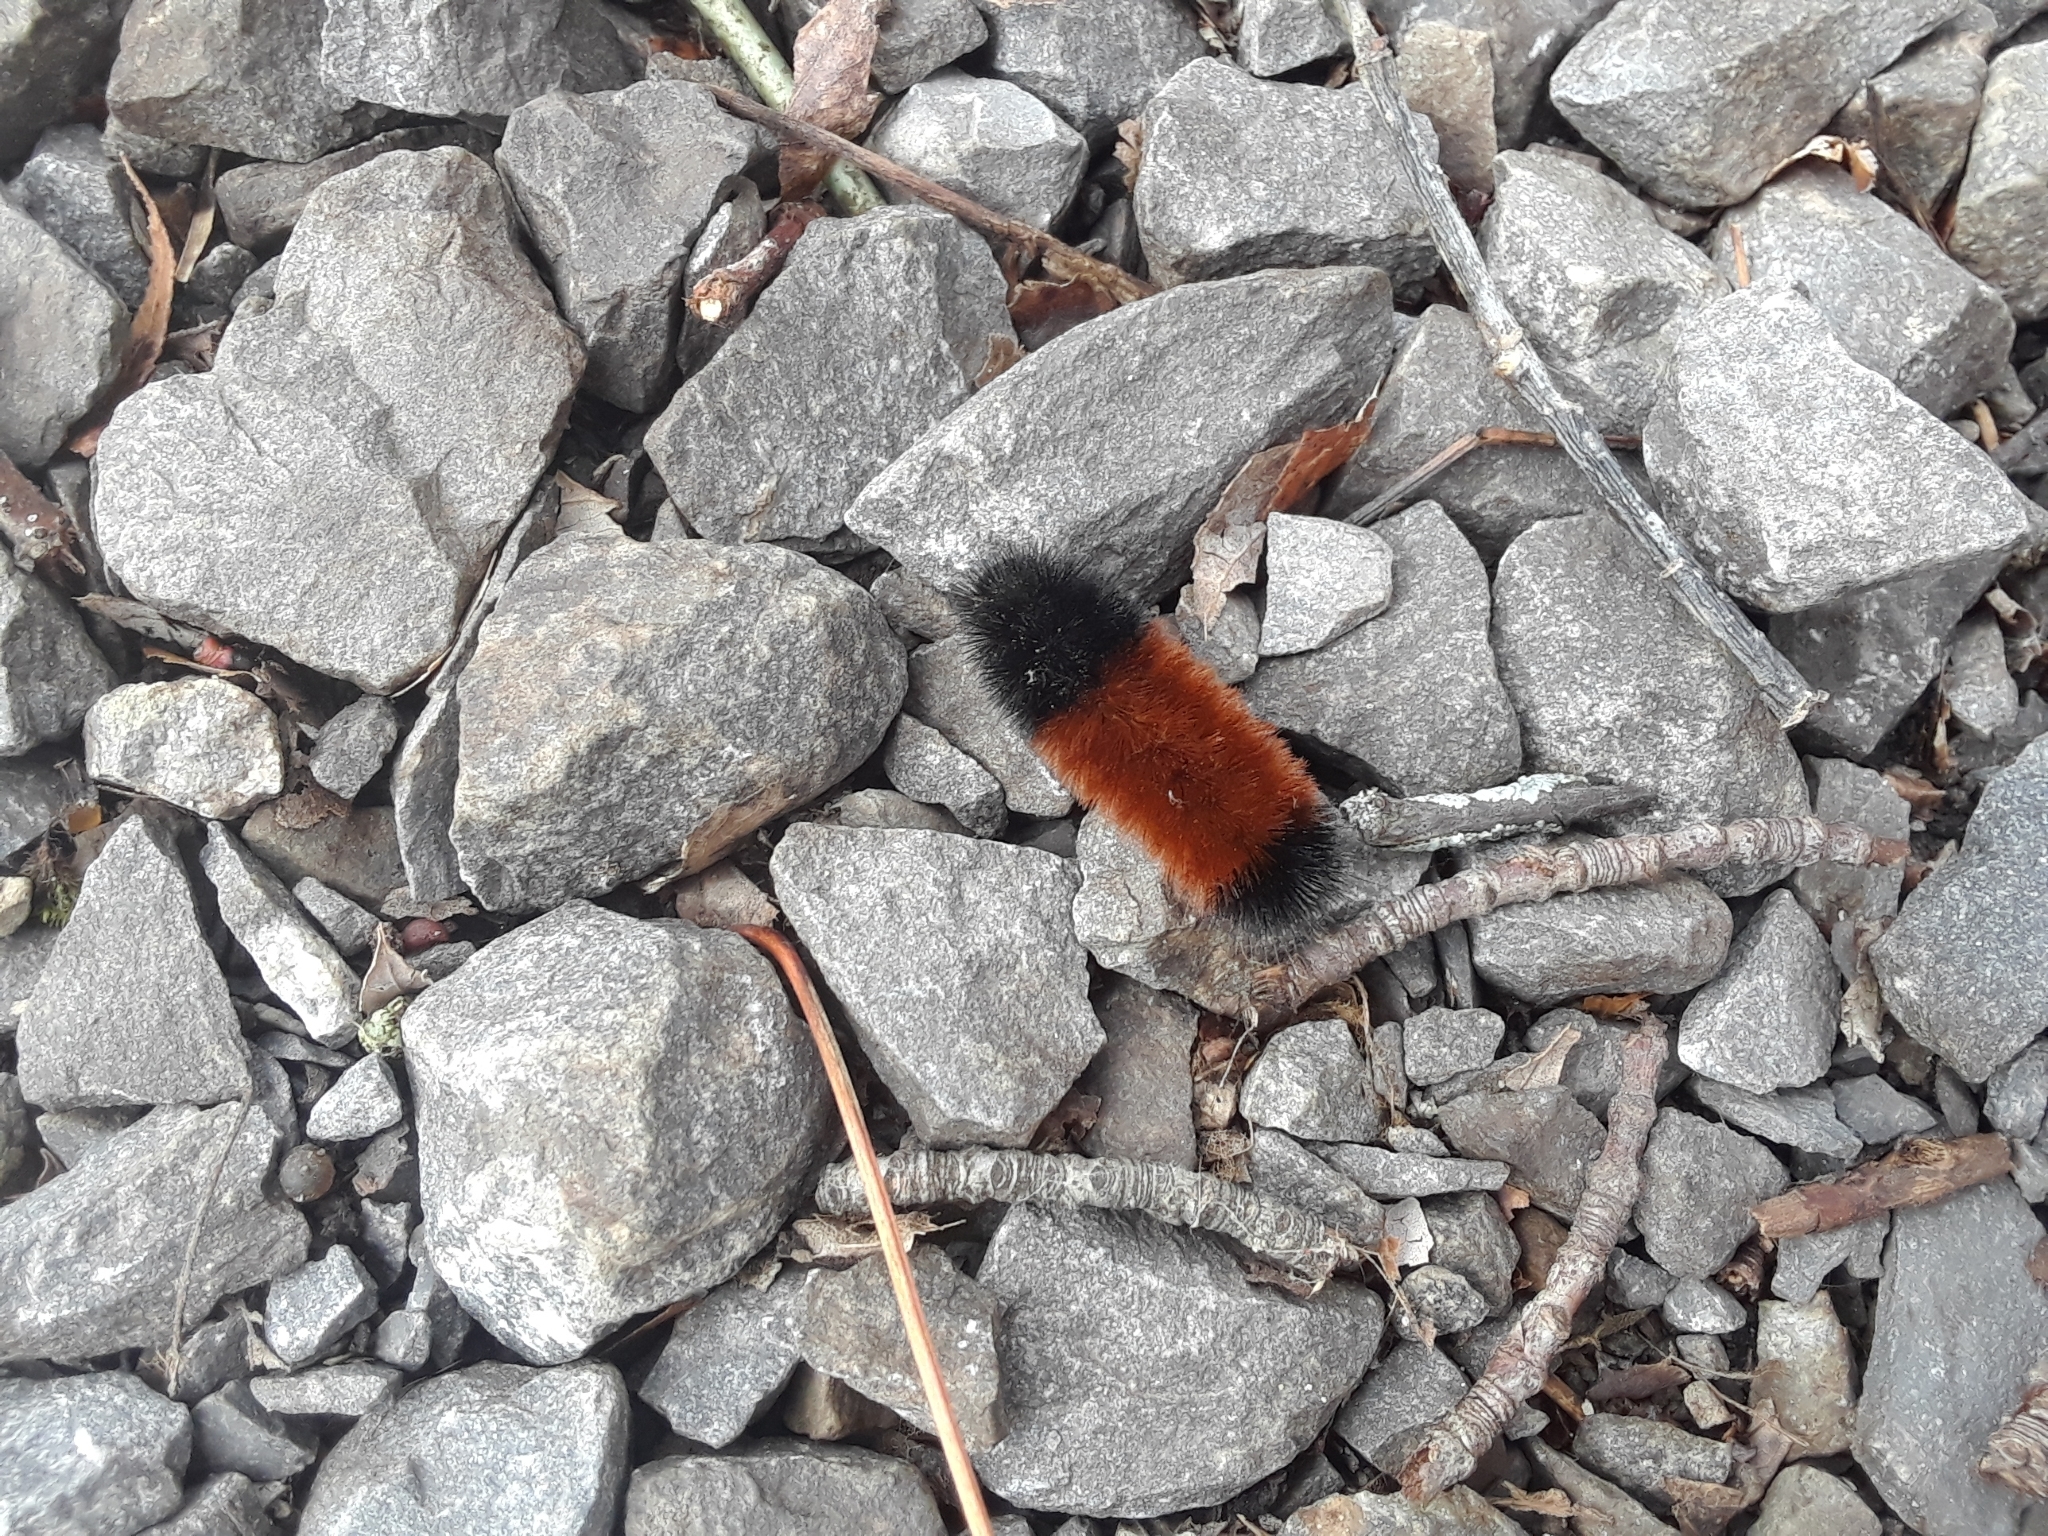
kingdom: Animalia
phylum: Arthropoda
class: Insecta
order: Lepidoptera
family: Erebidae
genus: Pyrrharctia
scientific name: Pyrrharctia isabella
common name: Isabella tiger moth
